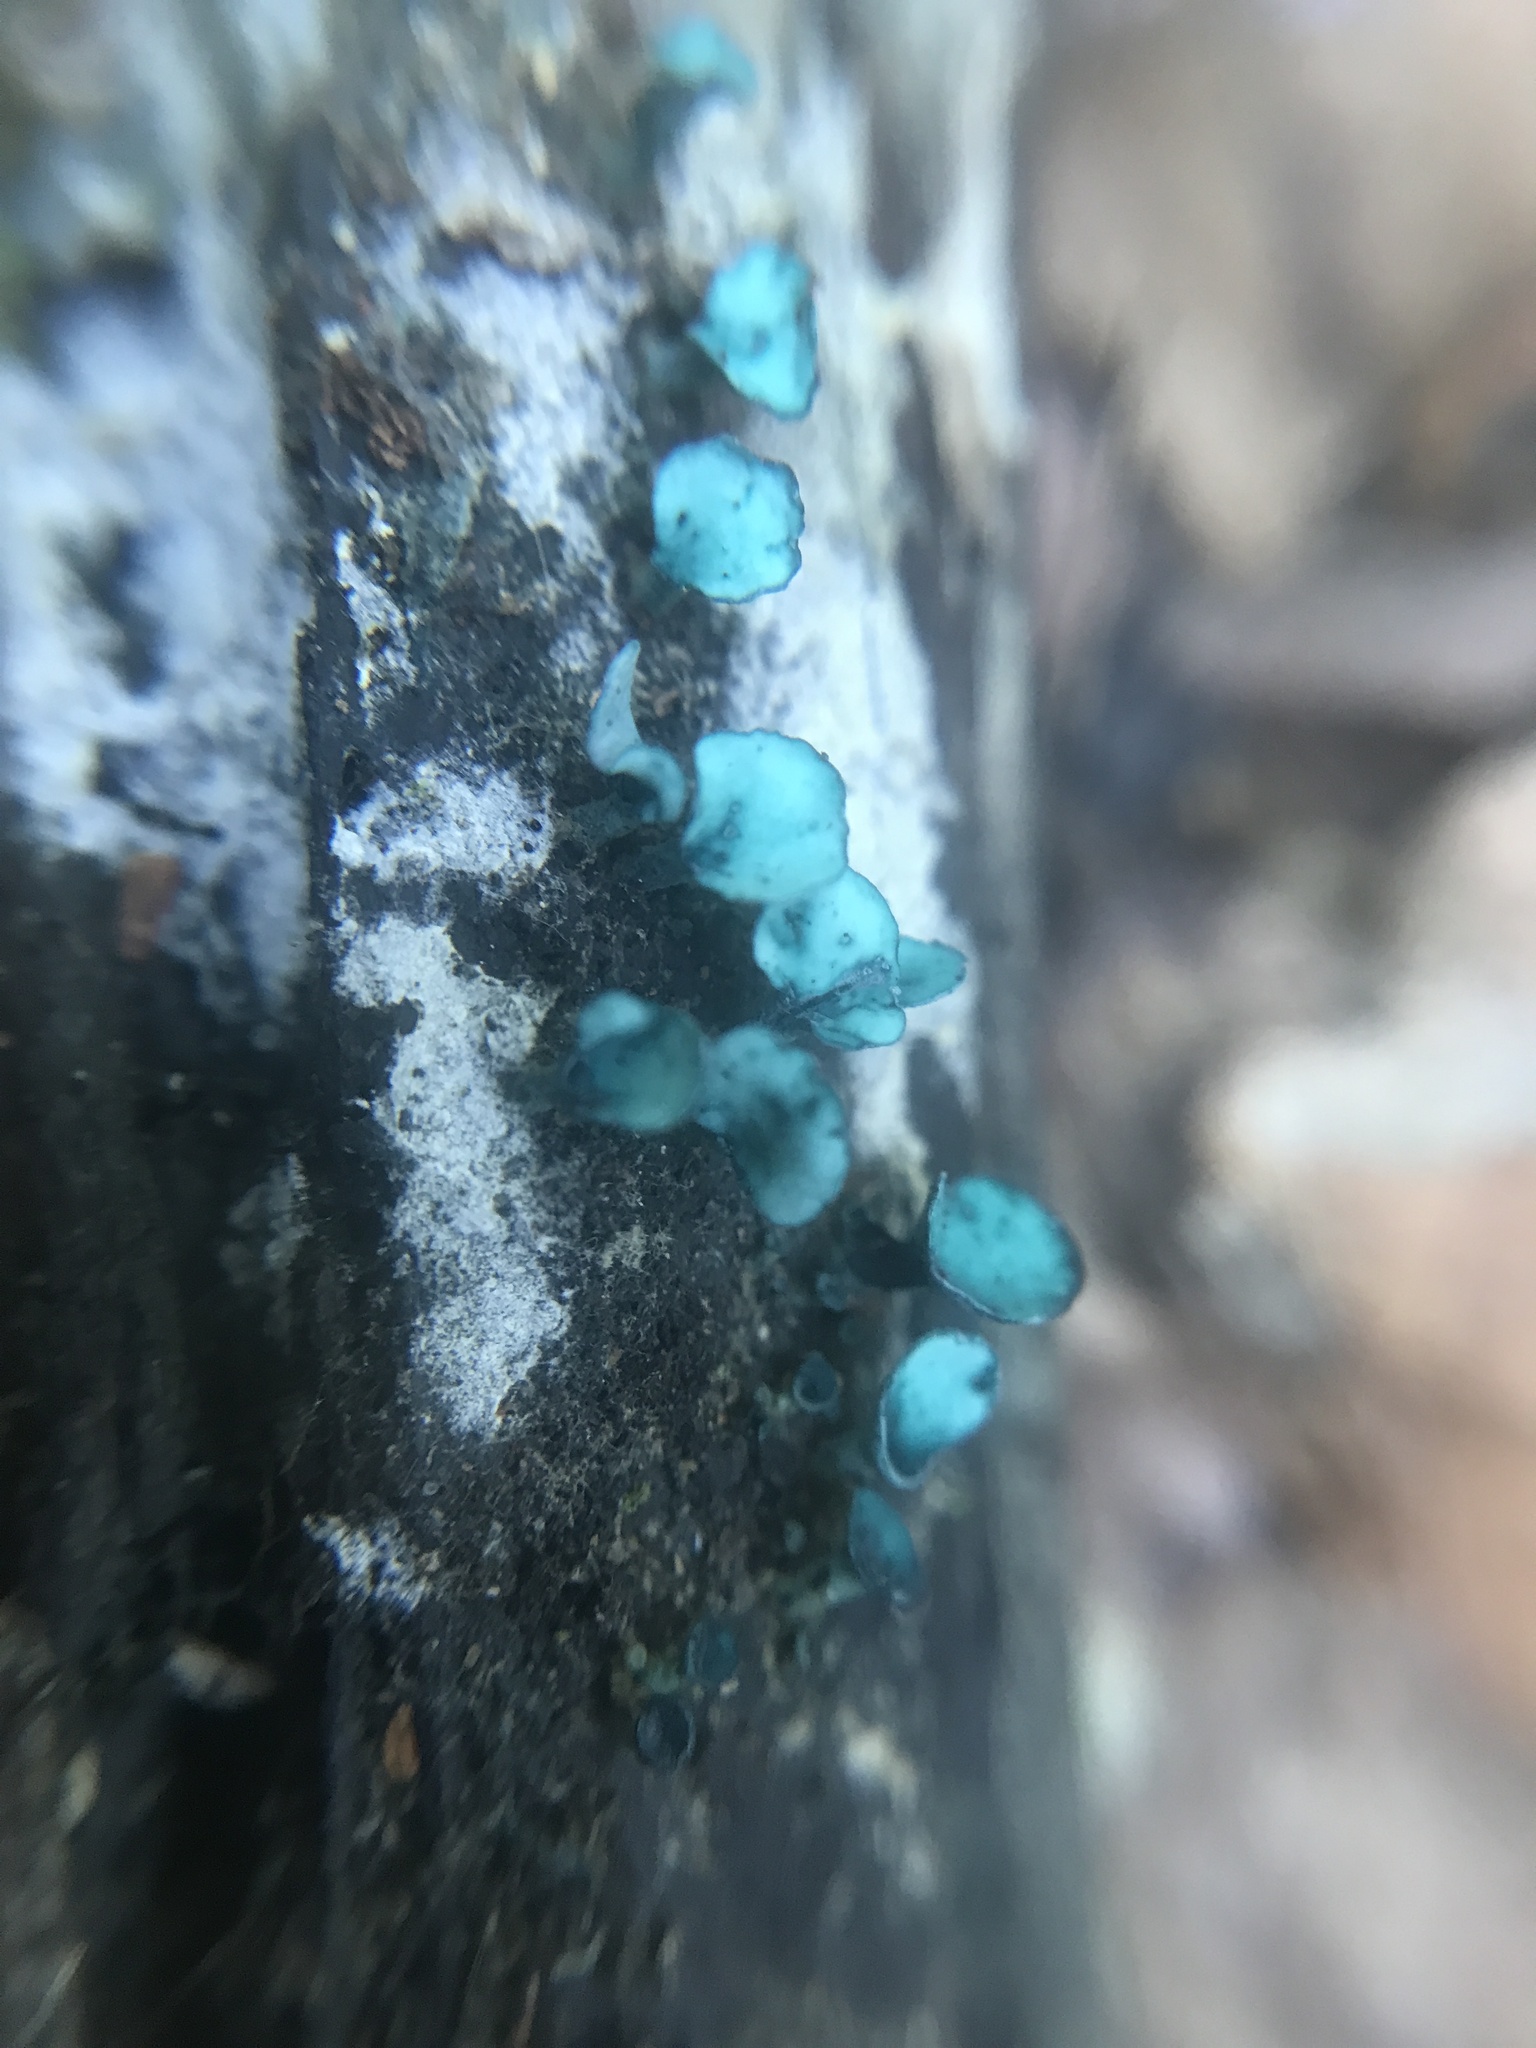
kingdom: Fungi
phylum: Ascomycota
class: Leotiomycetes
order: Helotiales
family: Chlorociboriaceae
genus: Chlorociboria
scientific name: Chlorociboria aeruginascens
